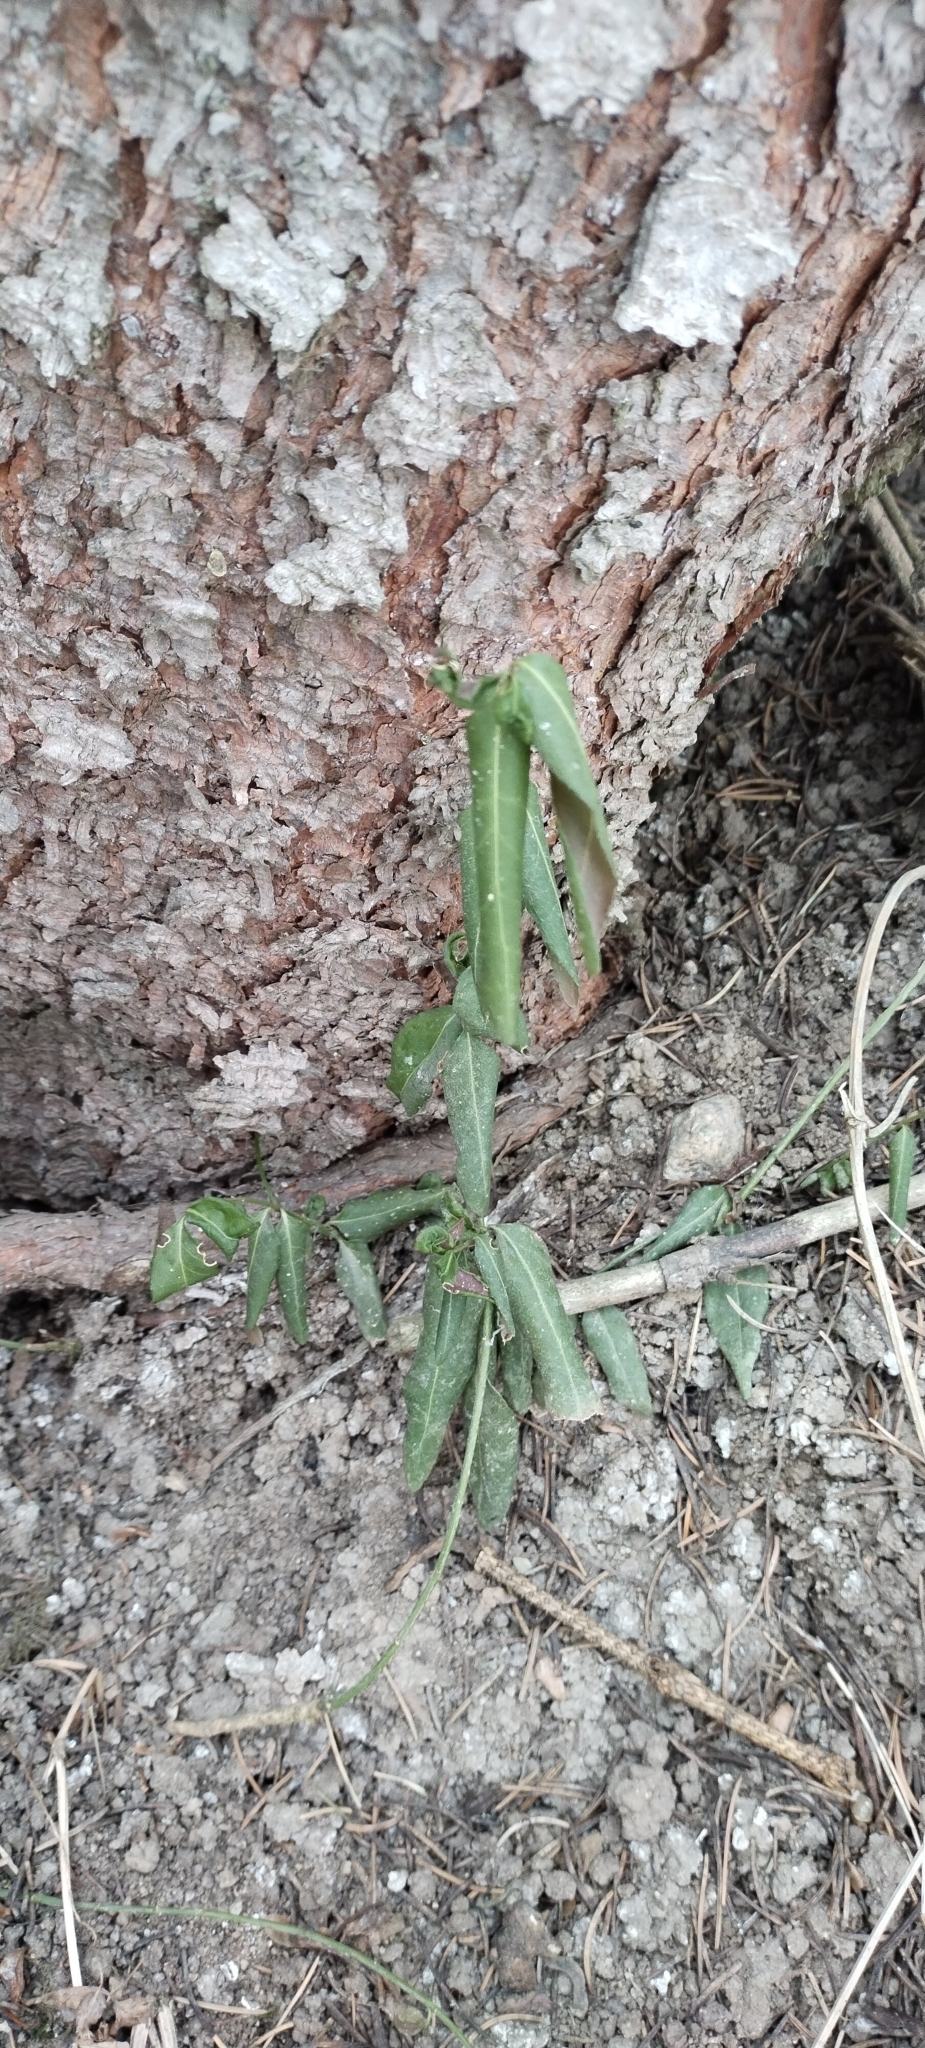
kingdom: Plantae
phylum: Tracheophyta
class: Magnoliopsida
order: Celastrales
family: Celastraceae
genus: Euonymus
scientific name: Euonymus semenovii
